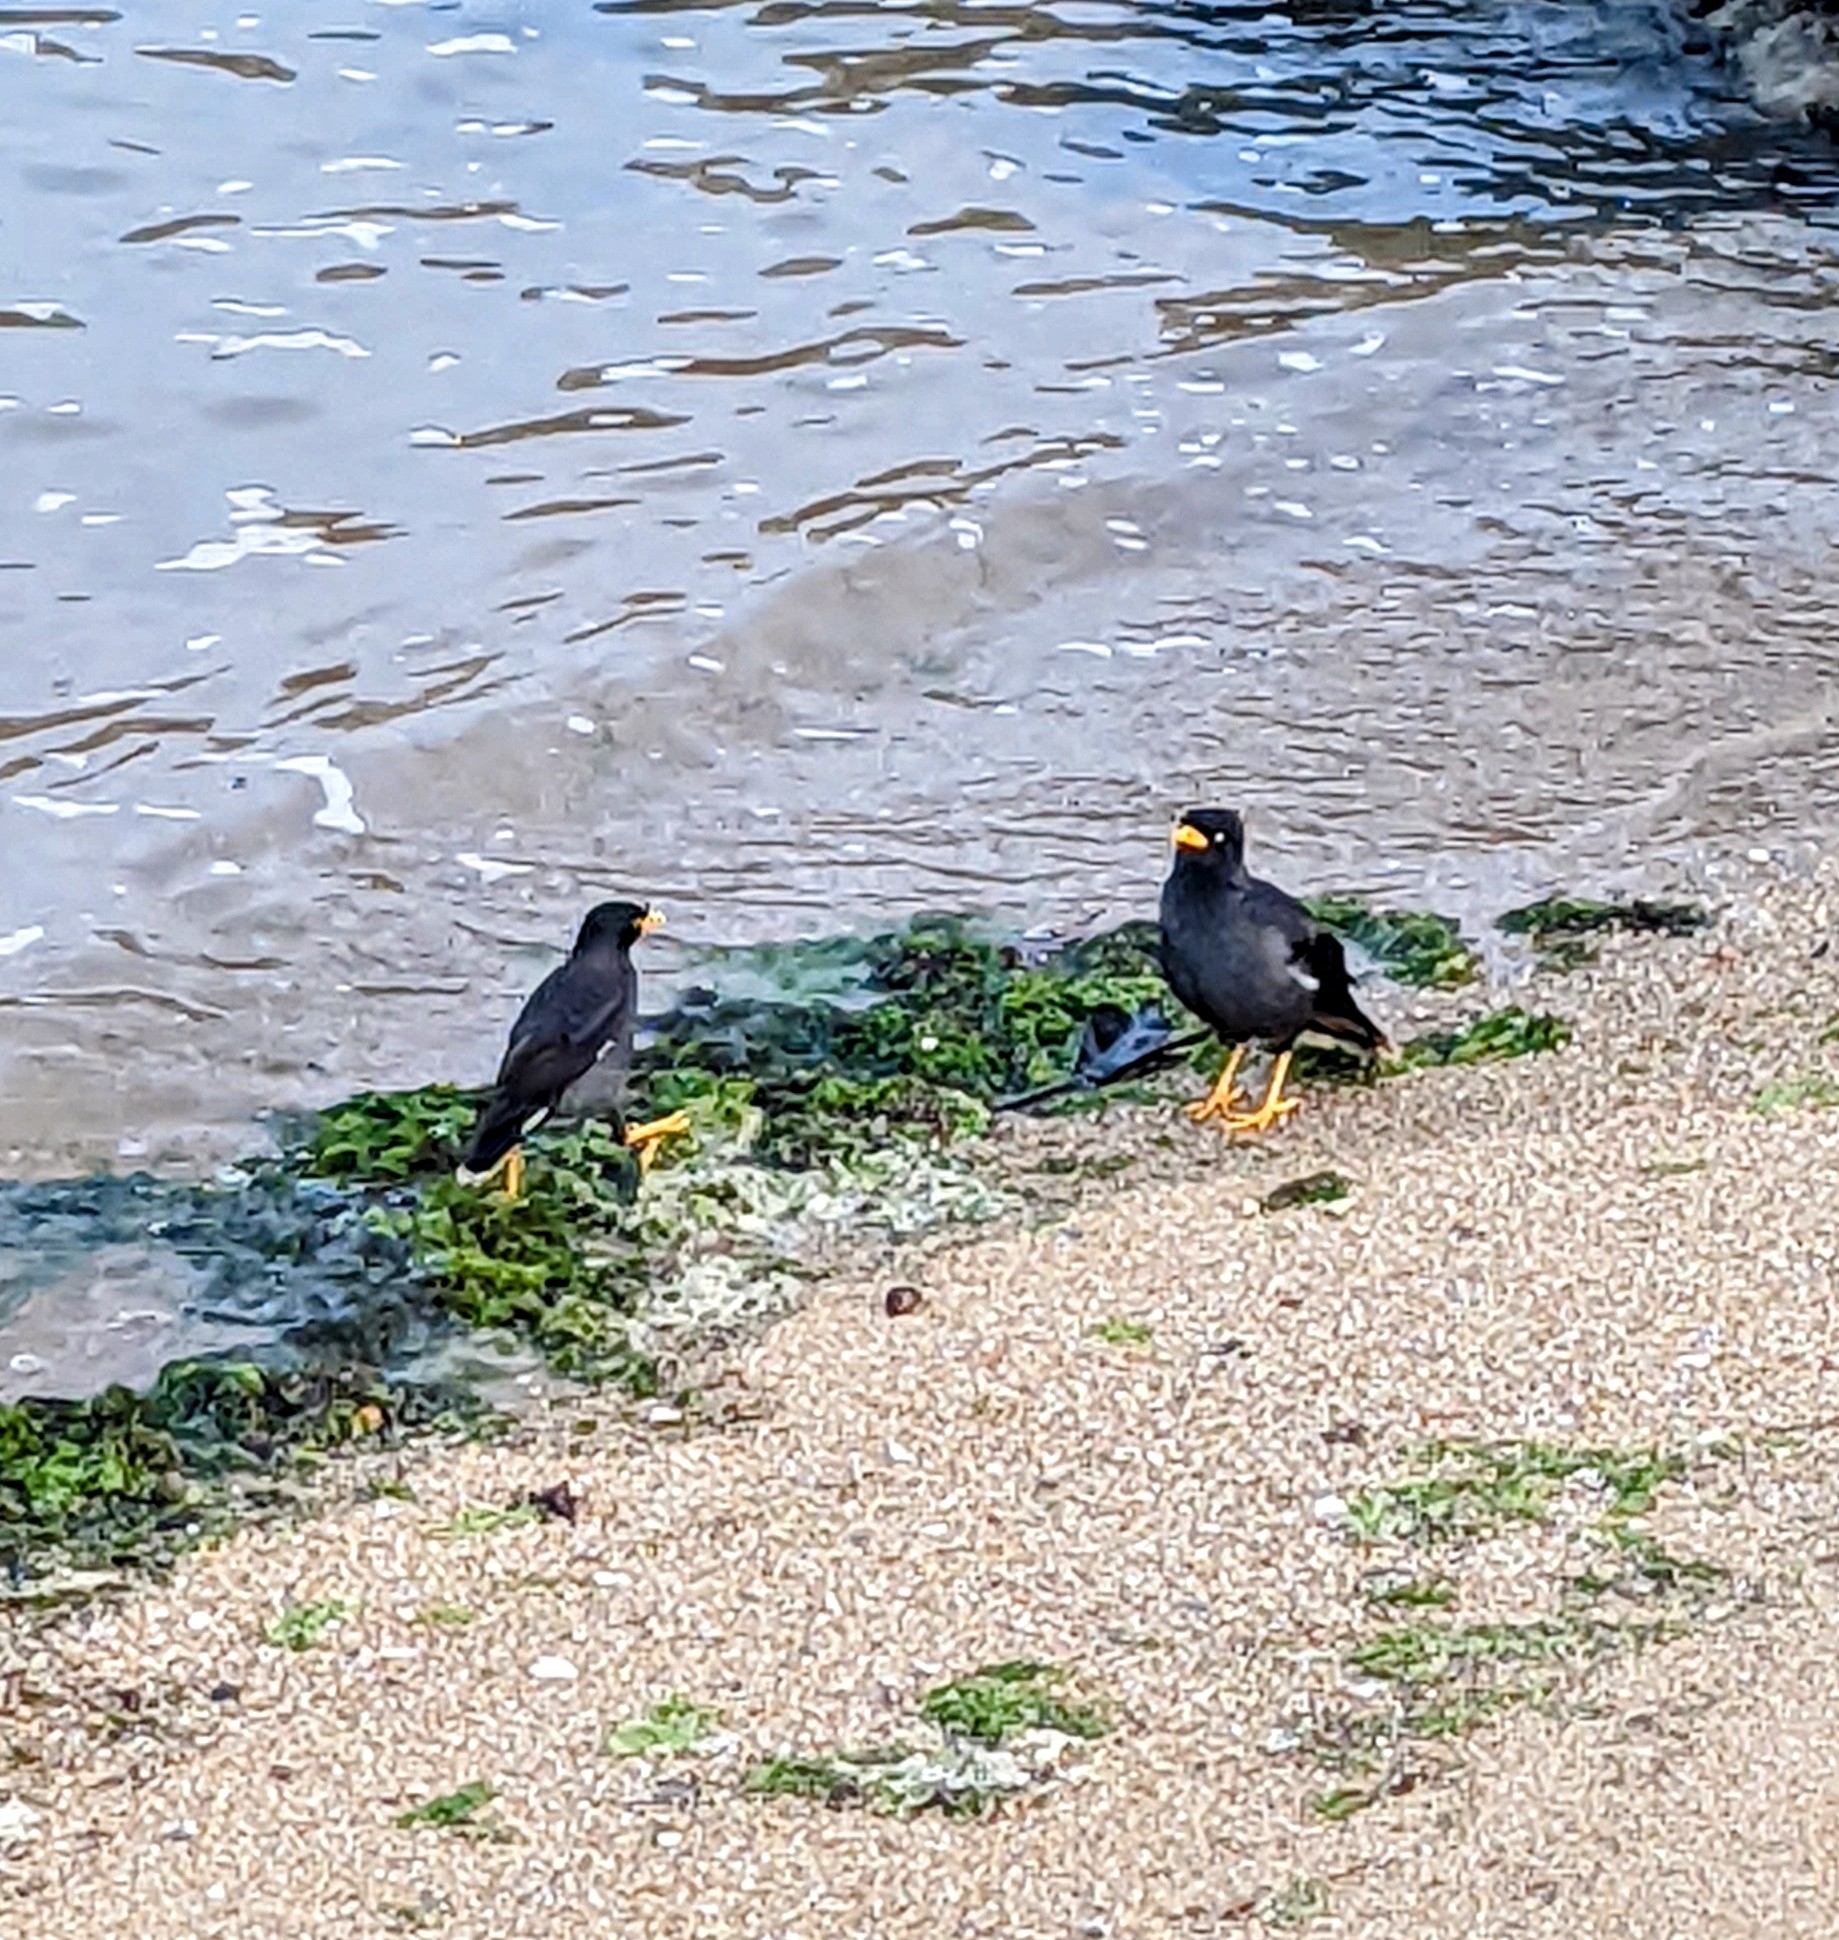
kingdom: Animalia
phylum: Chordata
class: Aves
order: Passeriformes
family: Sturnidae
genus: Acridotheres
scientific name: Acridotheres javanicus
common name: Javan myna
